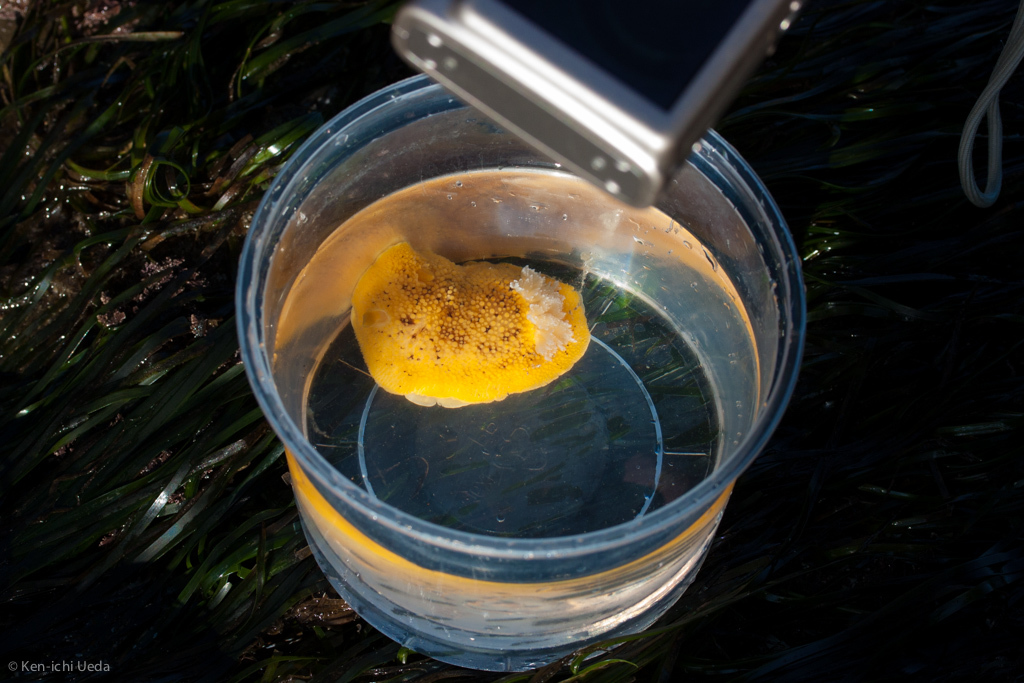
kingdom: Animalia
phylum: Mollusca
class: Gastropoda
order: Nudibranchia
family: Discodorididae
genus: Peltodoris
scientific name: Peltodoris nobilis
